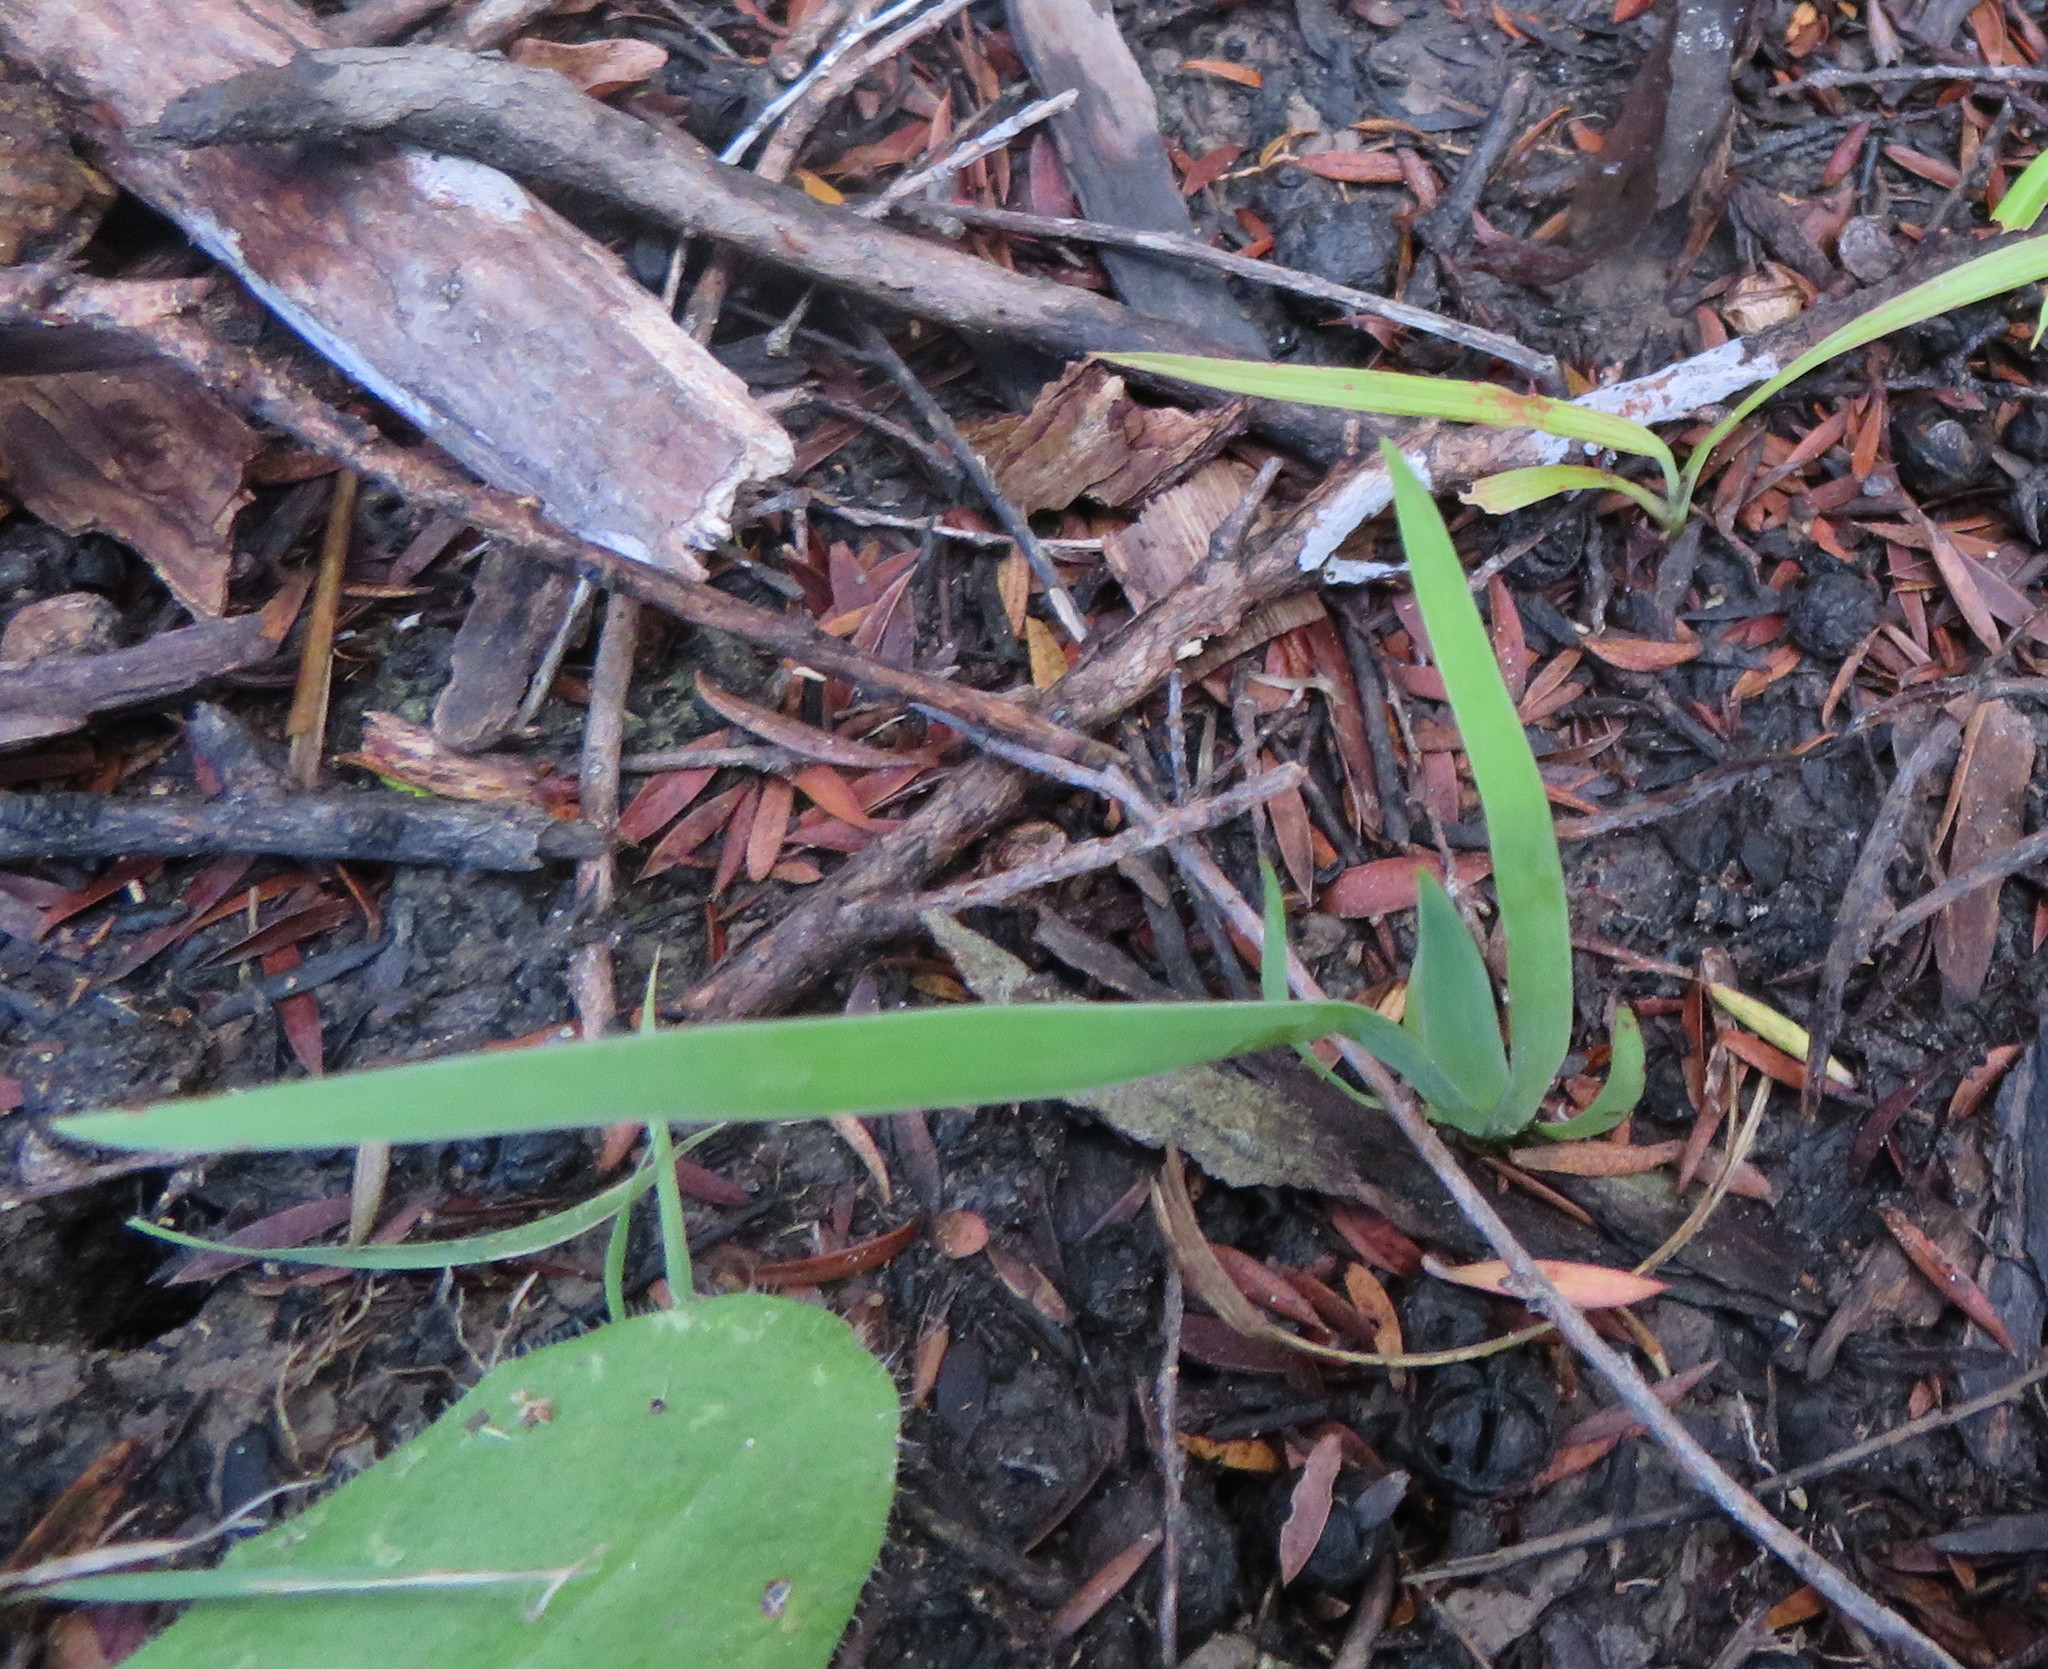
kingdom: Plantae
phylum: Tracheophyta
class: Liliopsida
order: Asparagales
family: Iridaceae
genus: Aristea
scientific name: Aristea ecklonii
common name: Blue corn-lily
